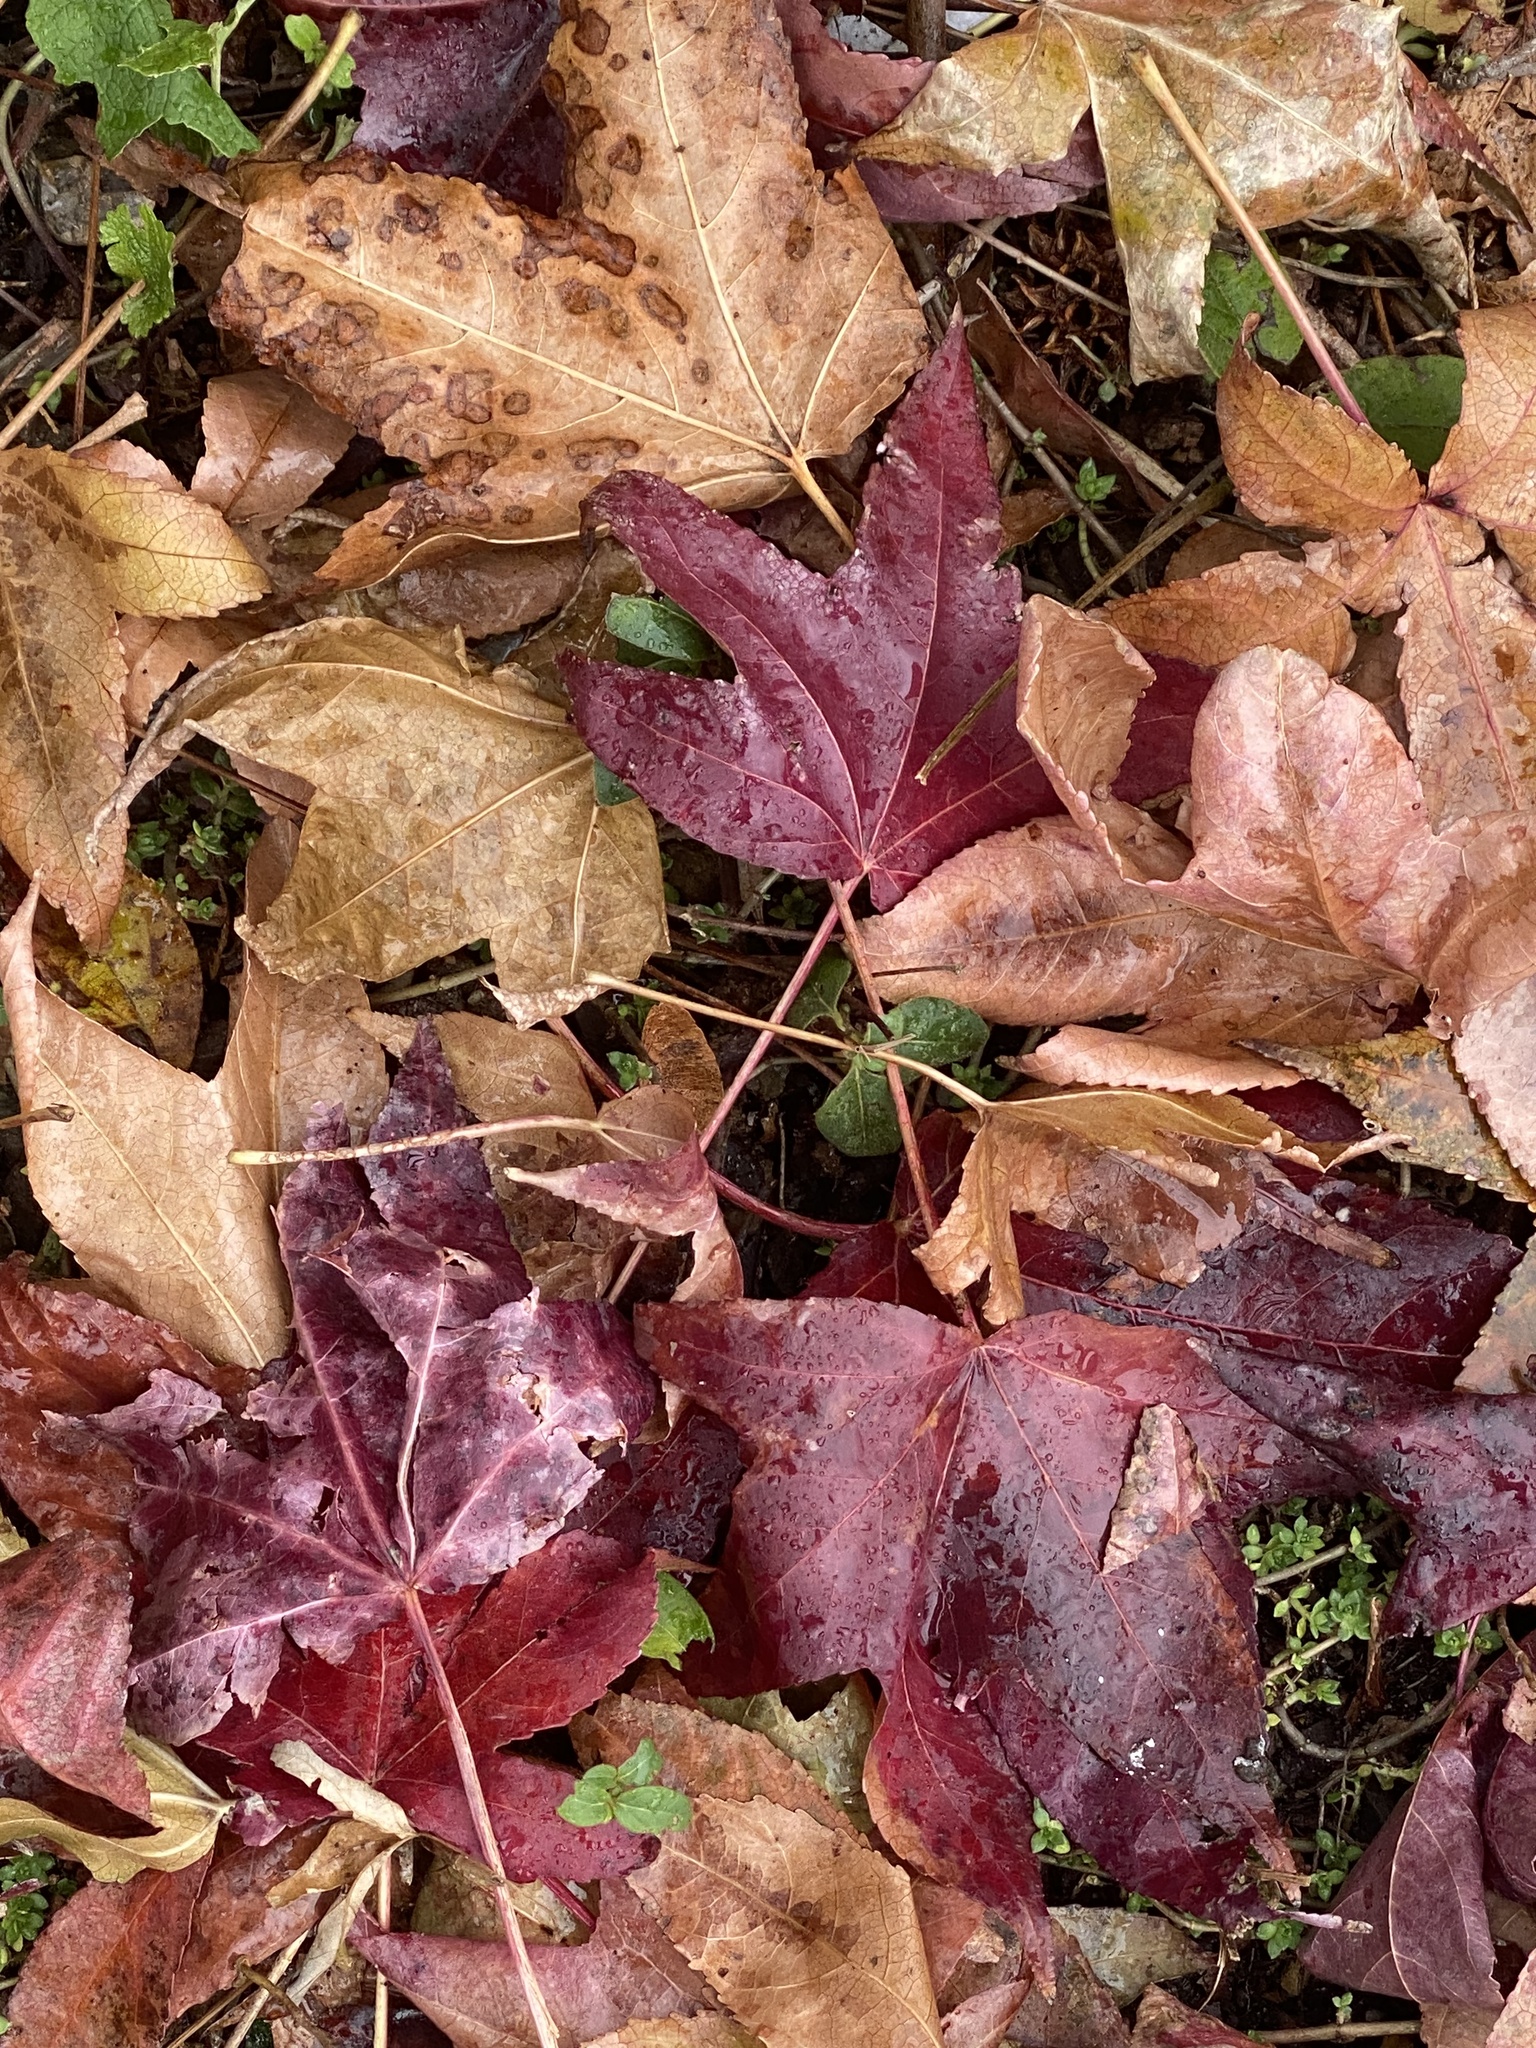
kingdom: Plantae
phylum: Tracheophyta
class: Magnoliopsida
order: Saxifragales
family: Altingiaceae
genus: Liquidambar
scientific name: Liquidambar styraciflua
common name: Sweet gum
